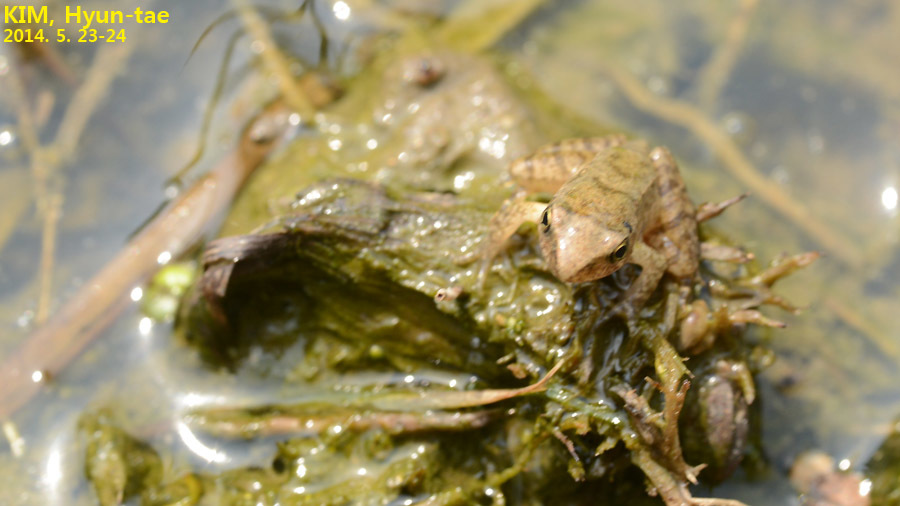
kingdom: Animalia
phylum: Chordata
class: Amphibia
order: Anura
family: Ranidae
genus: Rana
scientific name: Rana uenoi
